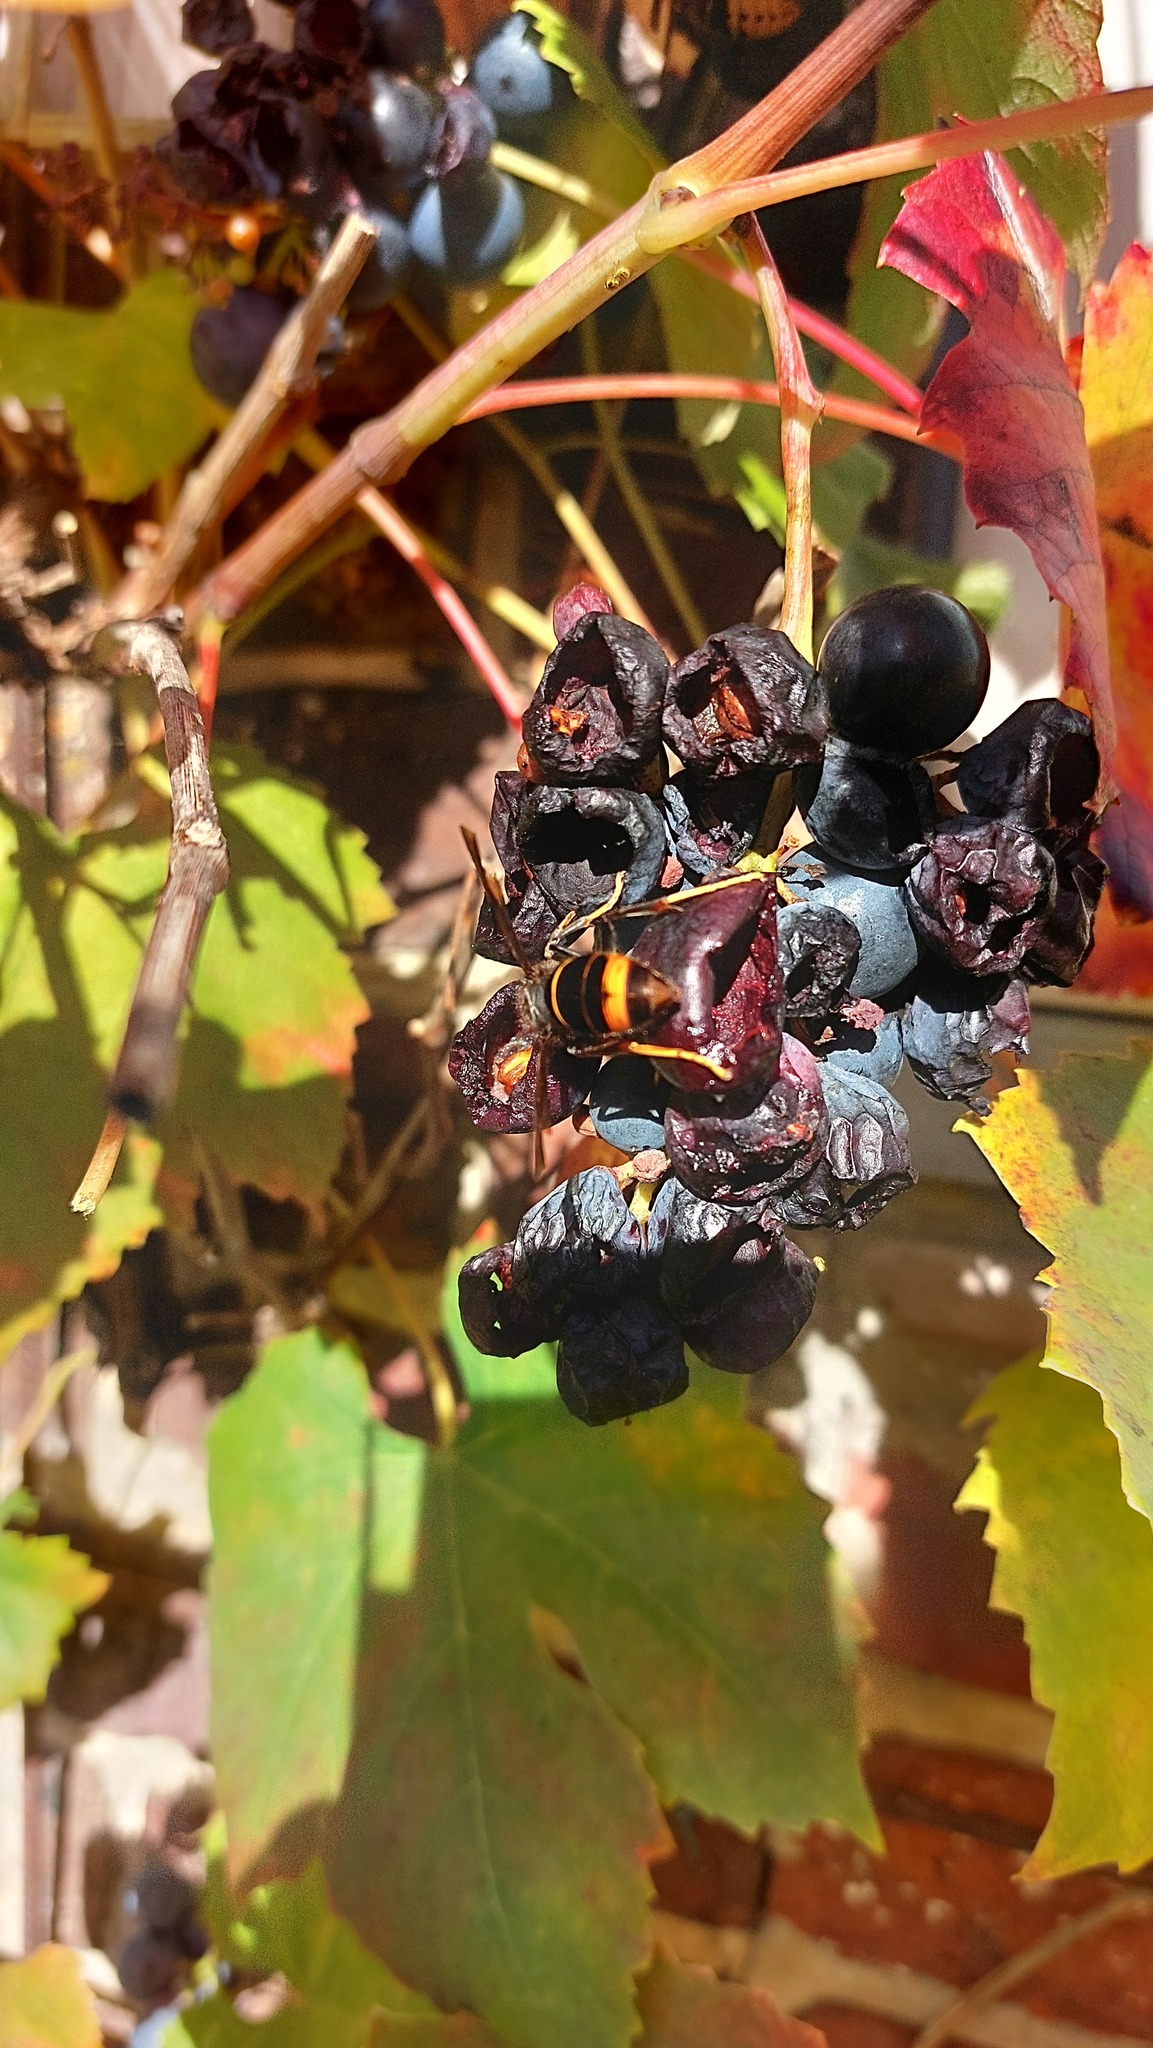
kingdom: Animalia
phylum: Arthropoda
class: Insecta
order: Hymenoptera
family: Vespidae
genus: Vespa
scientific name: Vespa velutina
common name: Asian hornet
